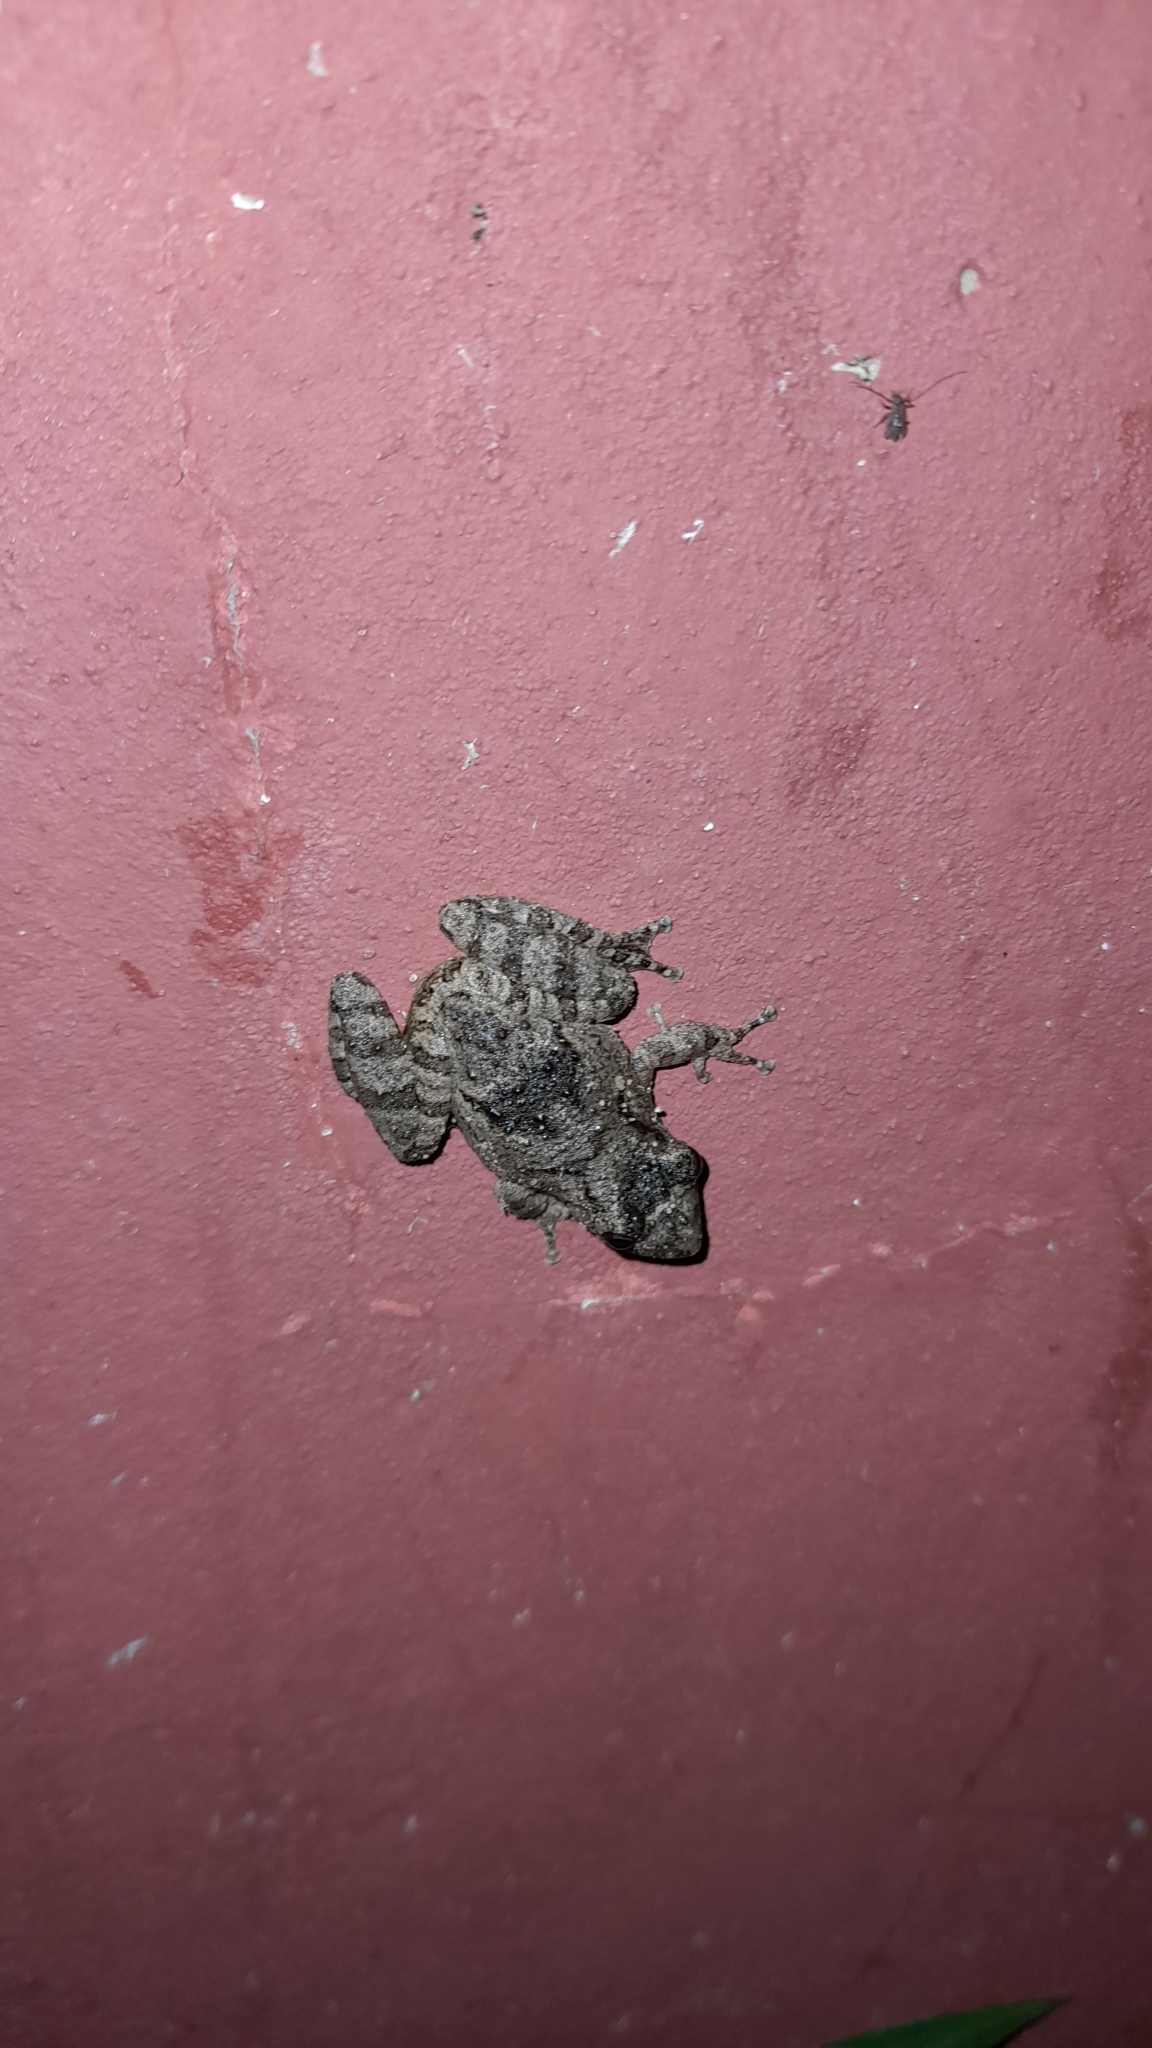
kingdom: Animalia
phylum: Chordata
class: Amphibia
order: Anura
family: Hylidae
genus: Scinax
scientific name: Scinax acuminatus
